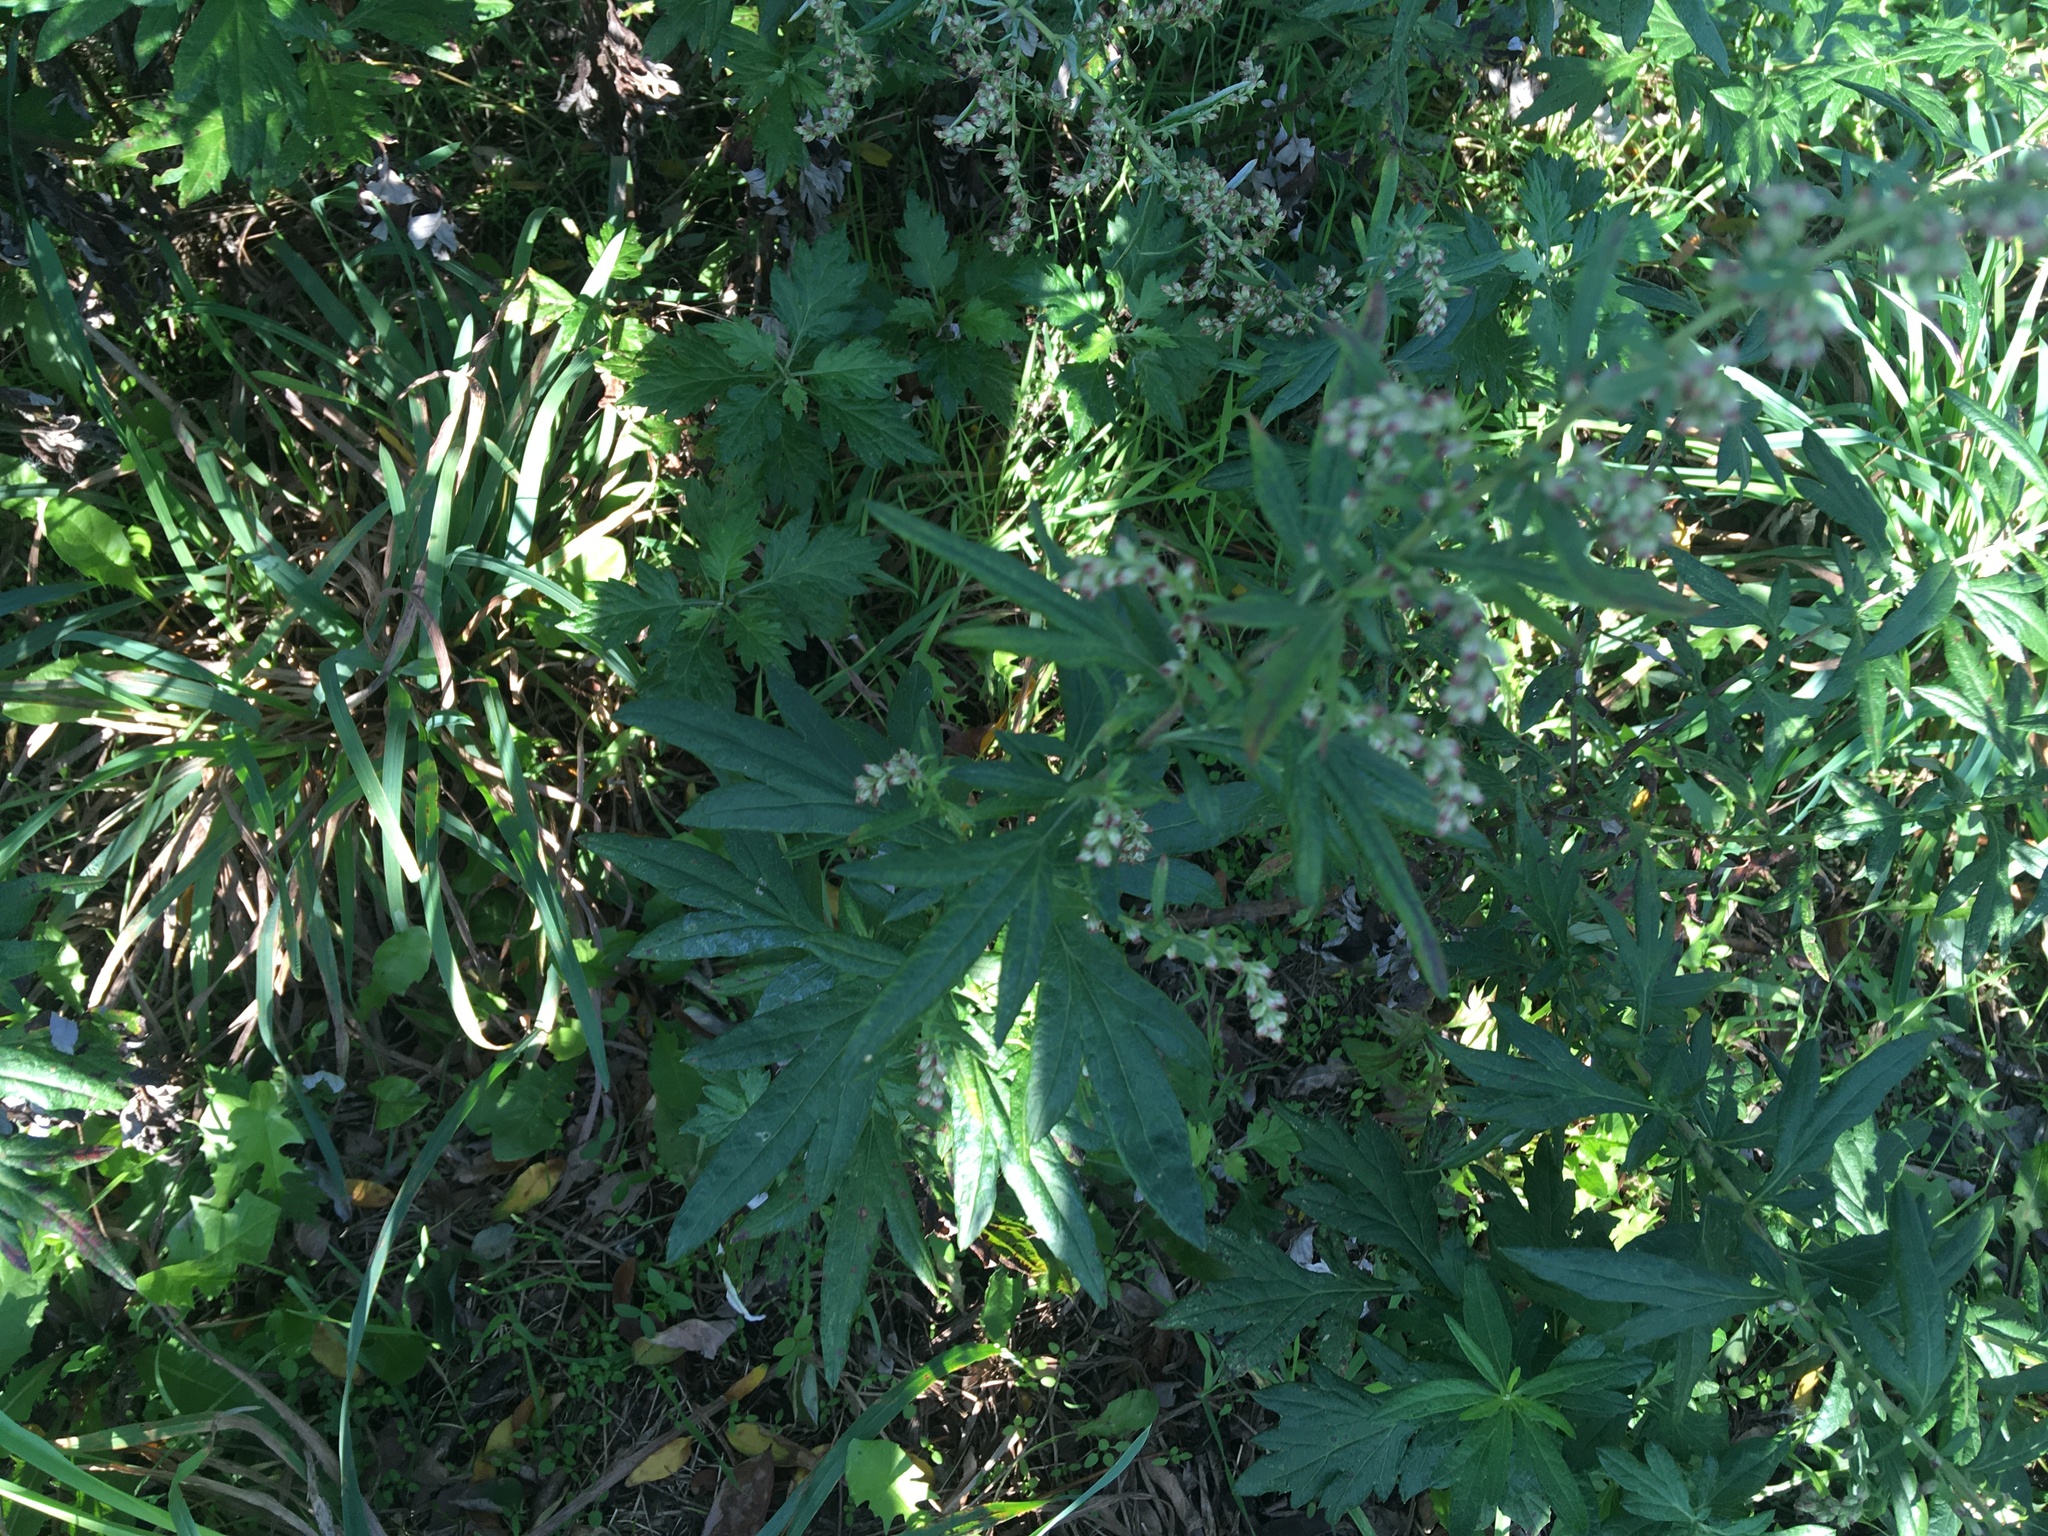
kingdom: Plantae
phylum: Tracheophyta
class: Magnoliopsida
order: Asterales
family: Asteraceae
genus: Artemisia
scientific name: Artemisia vulgaris
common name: Mugwort
